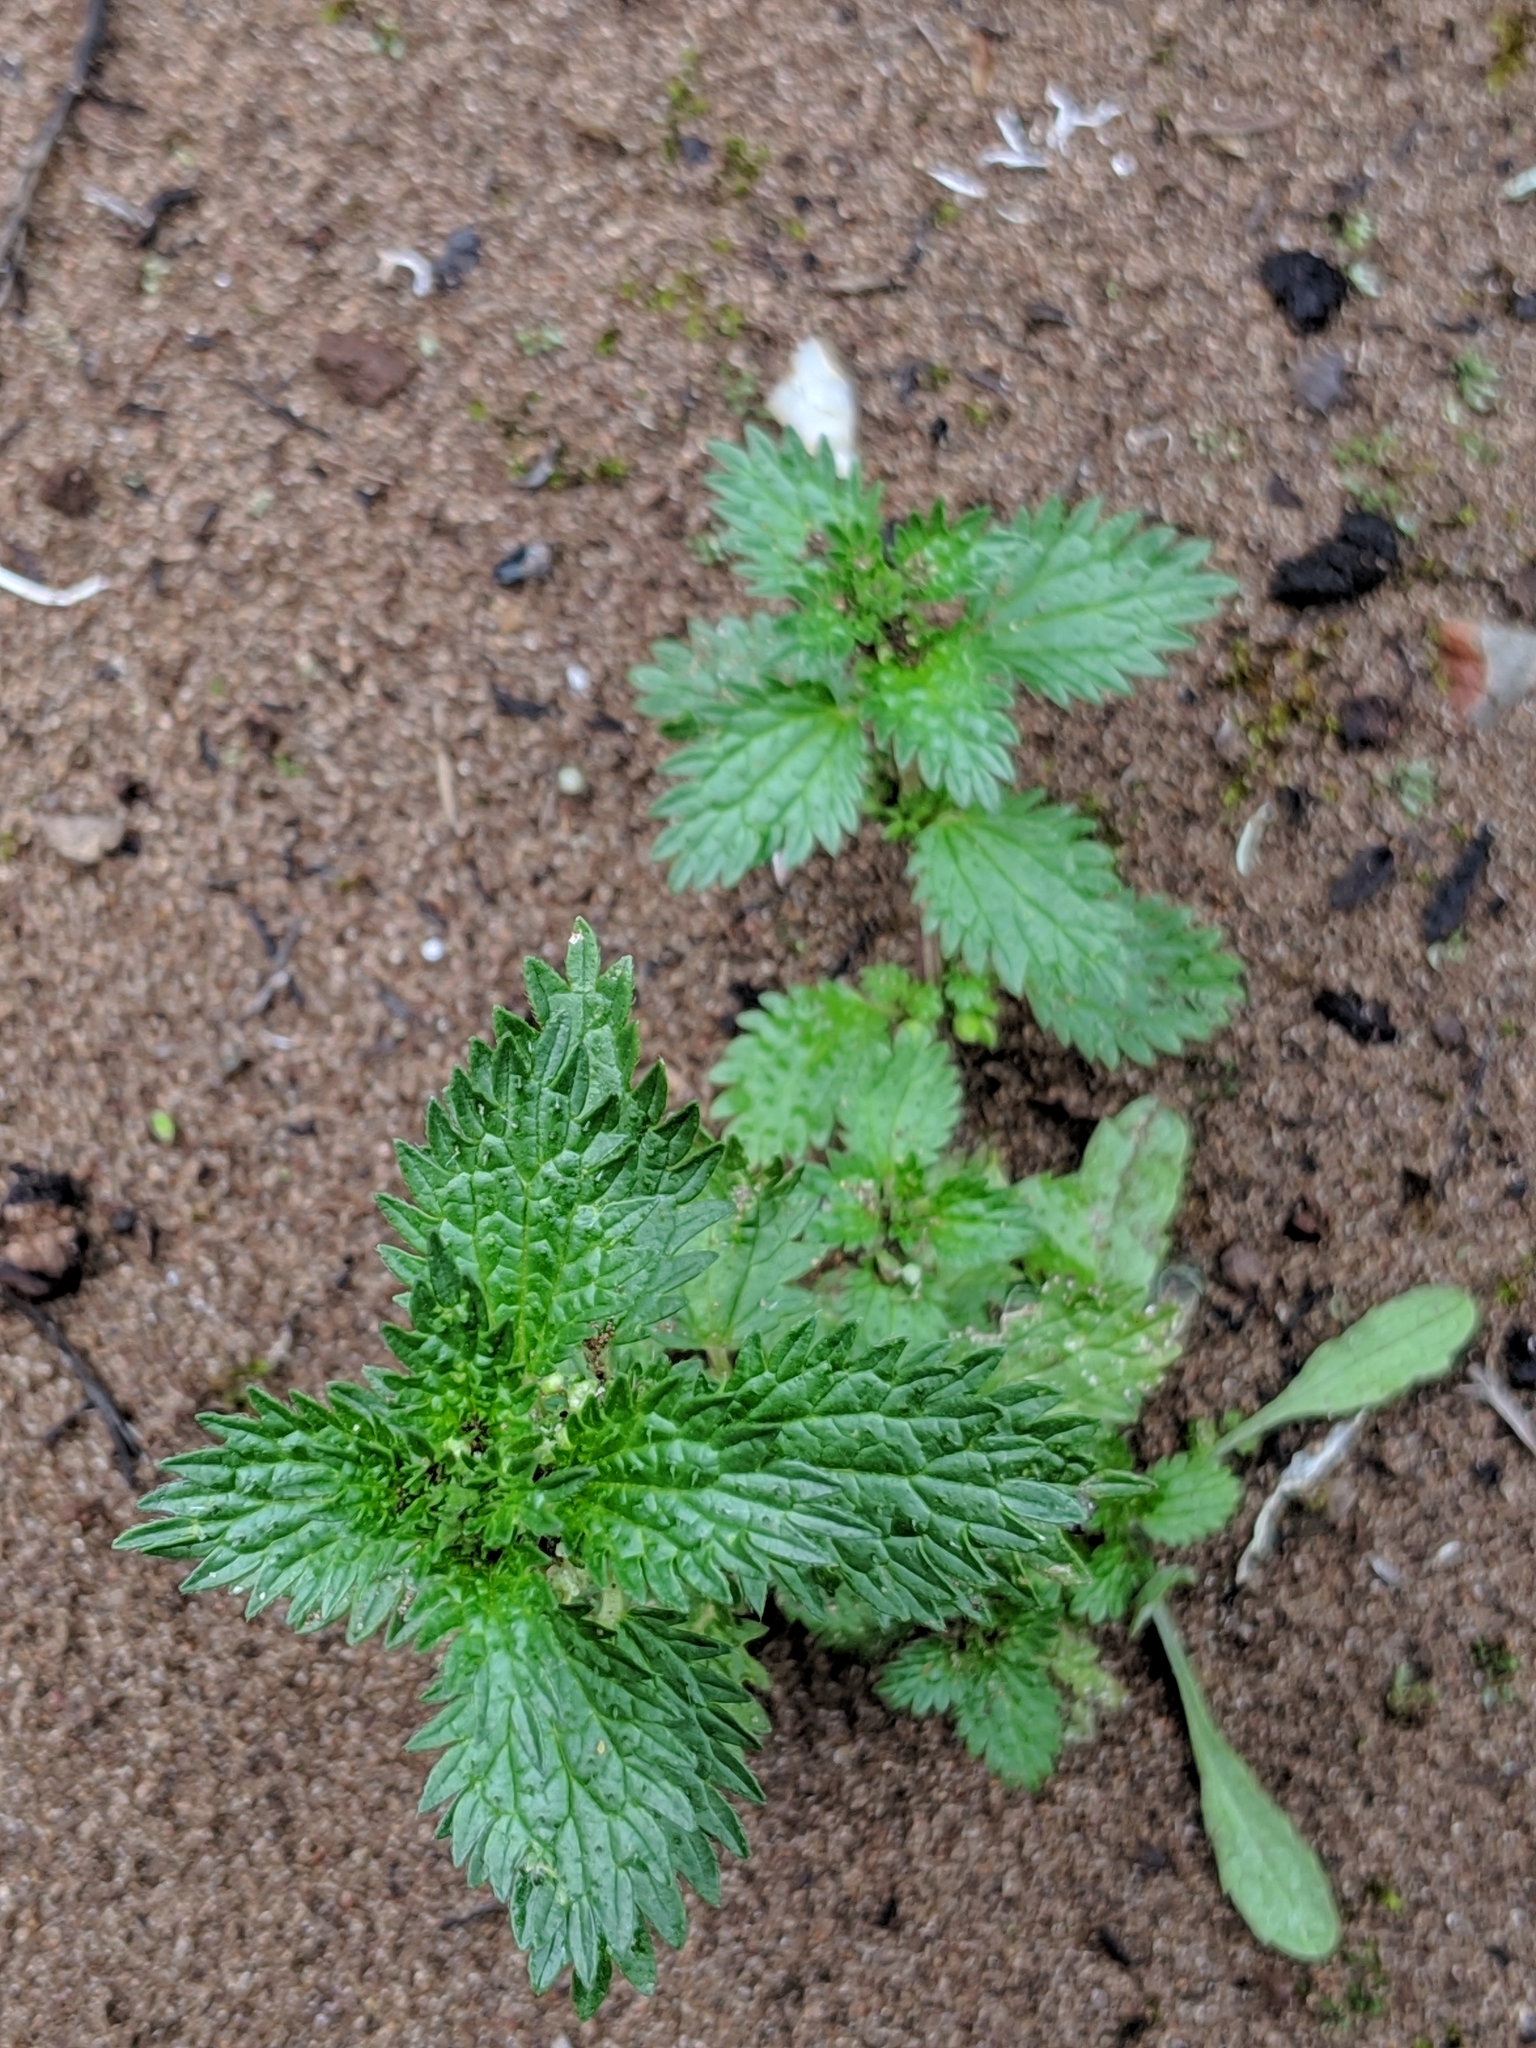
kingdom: Plantae
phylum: Tracheophyta
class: Magnoliopsida
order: Rosales
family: Urticaceae
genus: Urtica
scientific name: Urtica urens
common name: Dwarf nettle
